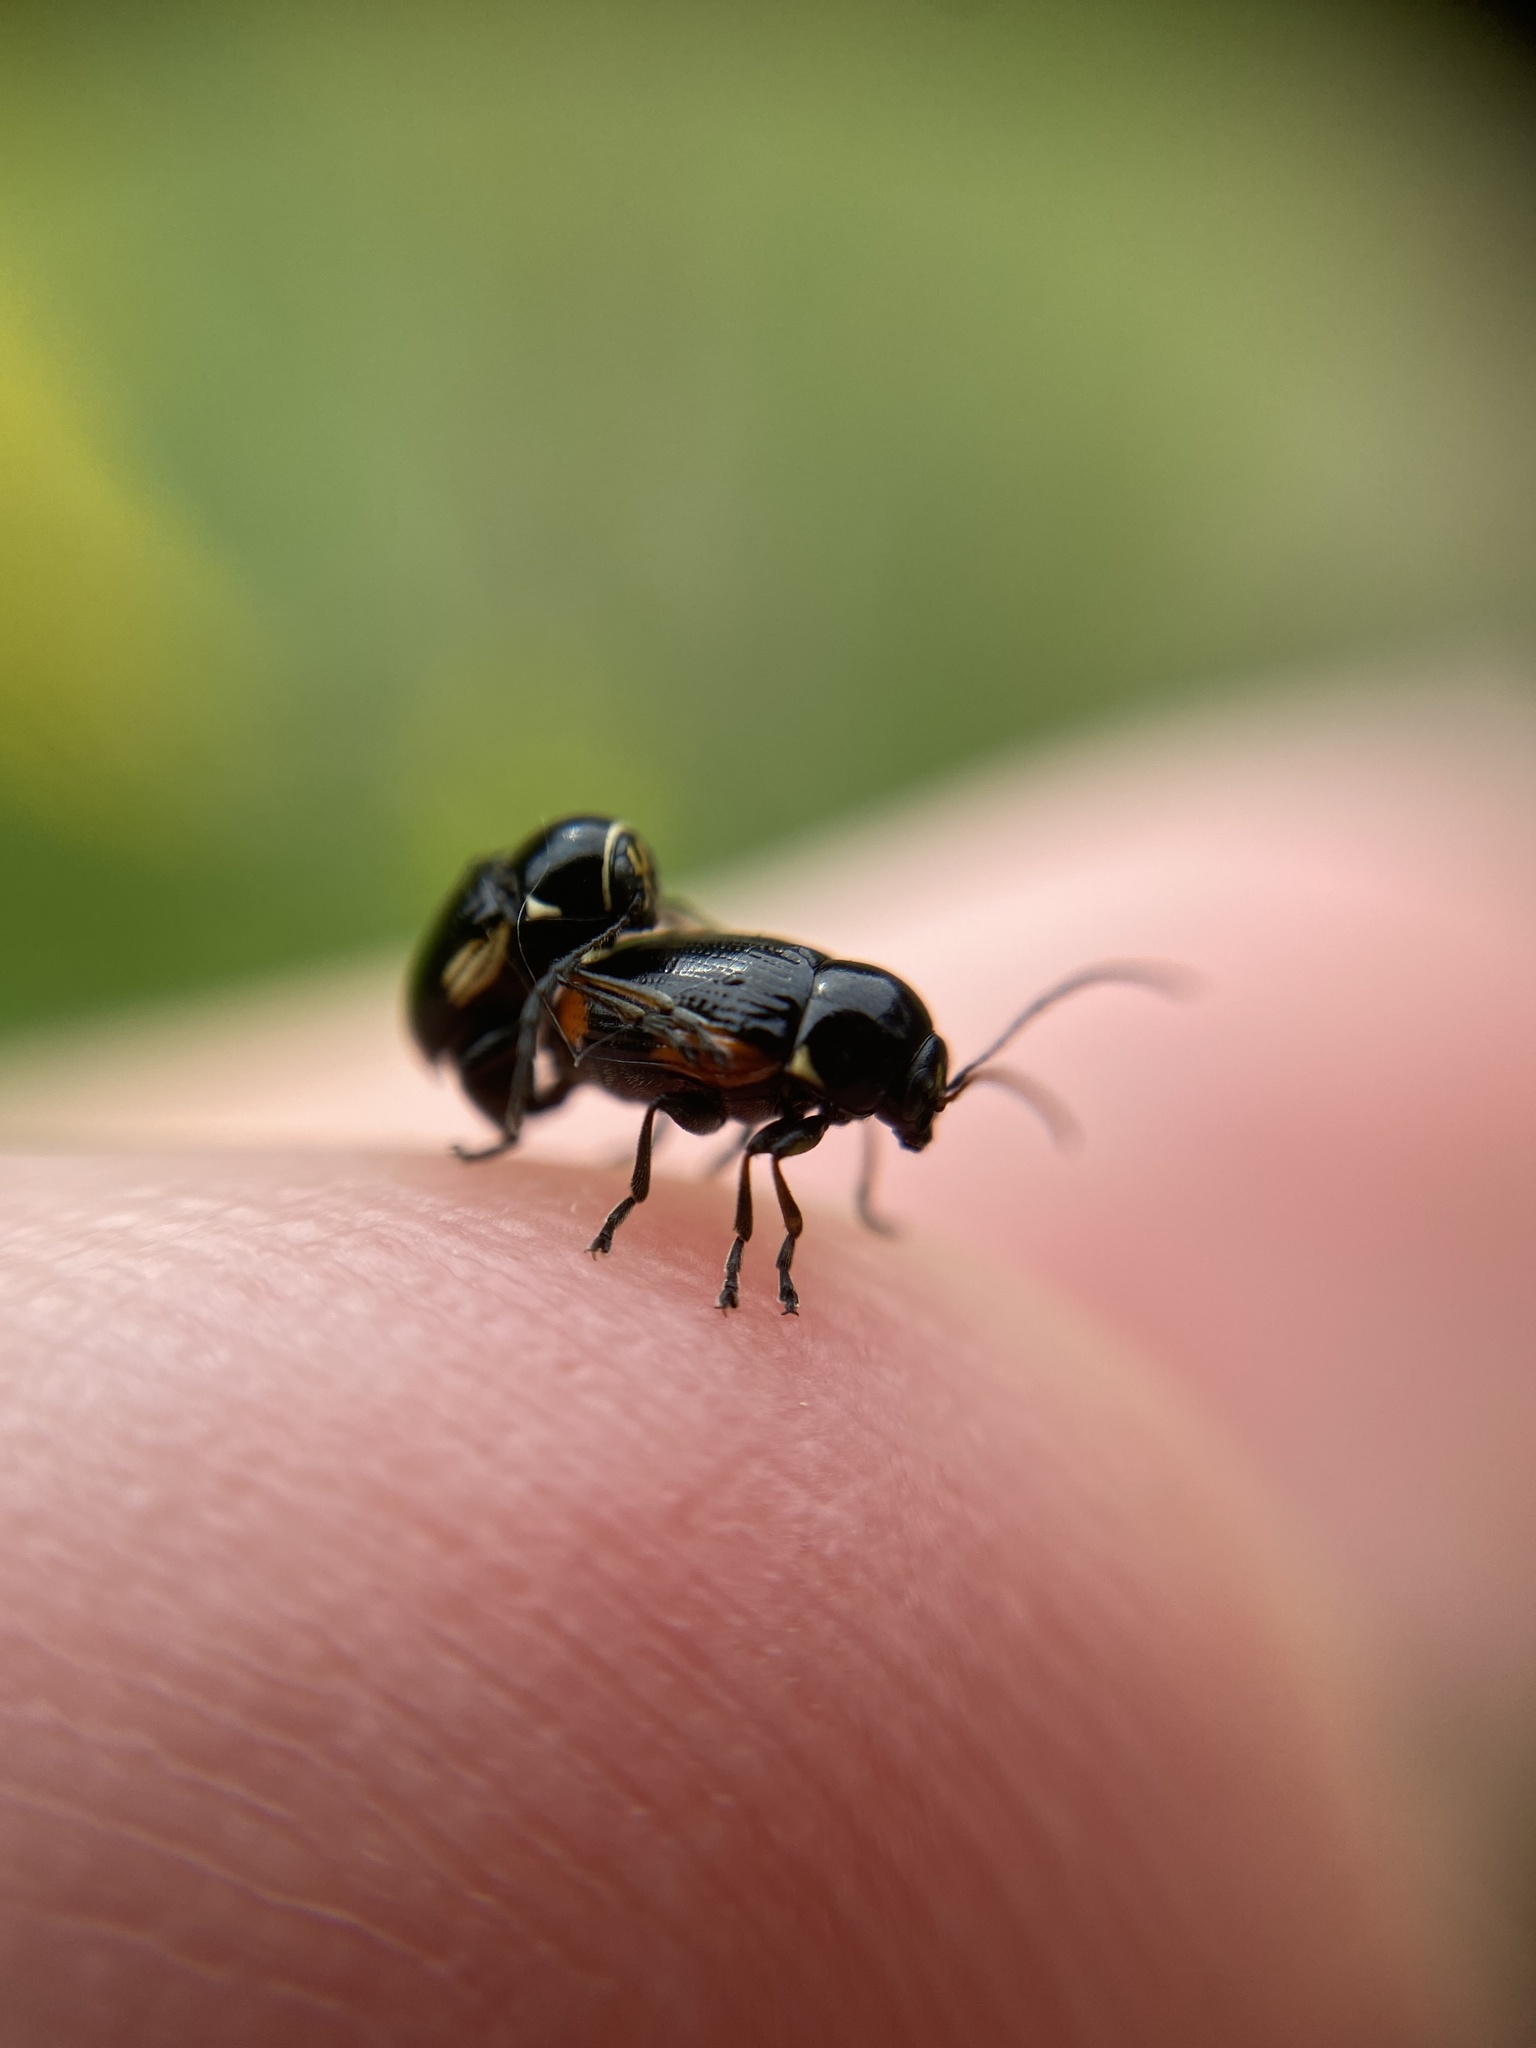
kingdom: Animalia
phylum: Arthropoda
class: Insecta
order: Coleoptera
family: Chrysomelidae
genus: Cryptocephalus
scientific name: Cryptocephalus moraei
